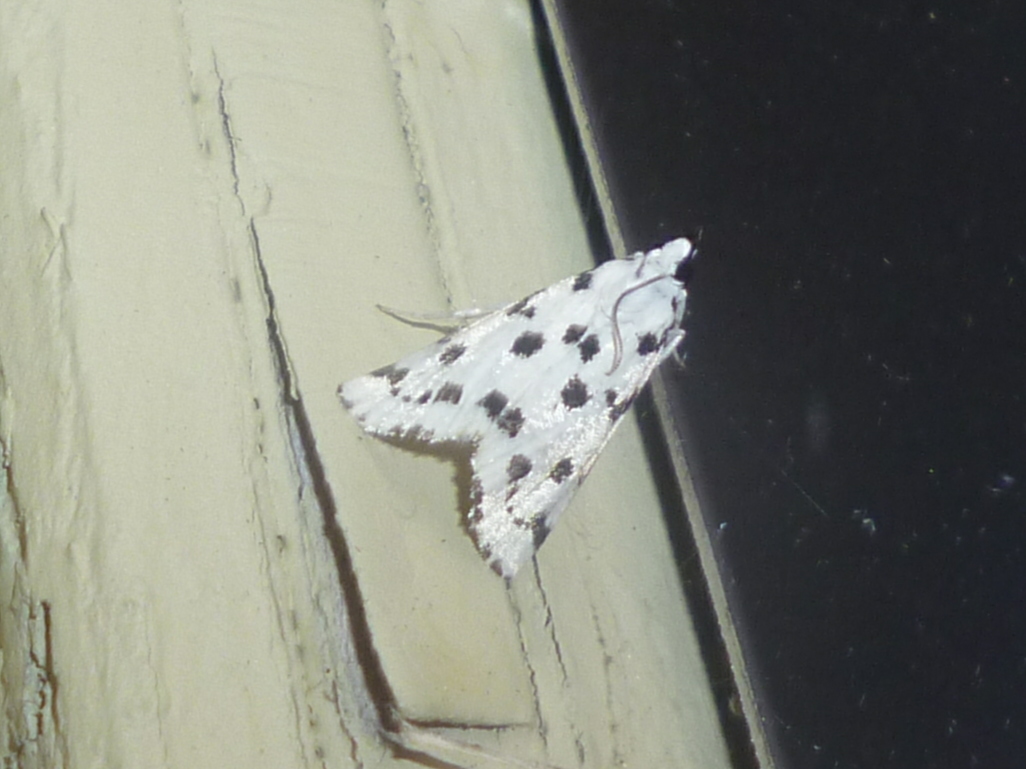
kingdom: Animalia
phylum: Arthropoda
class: Insecta
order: Lepidoptera
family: Crambidae
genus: Eustixia
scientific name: Eustixia pupula
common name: American cabbage pearl
